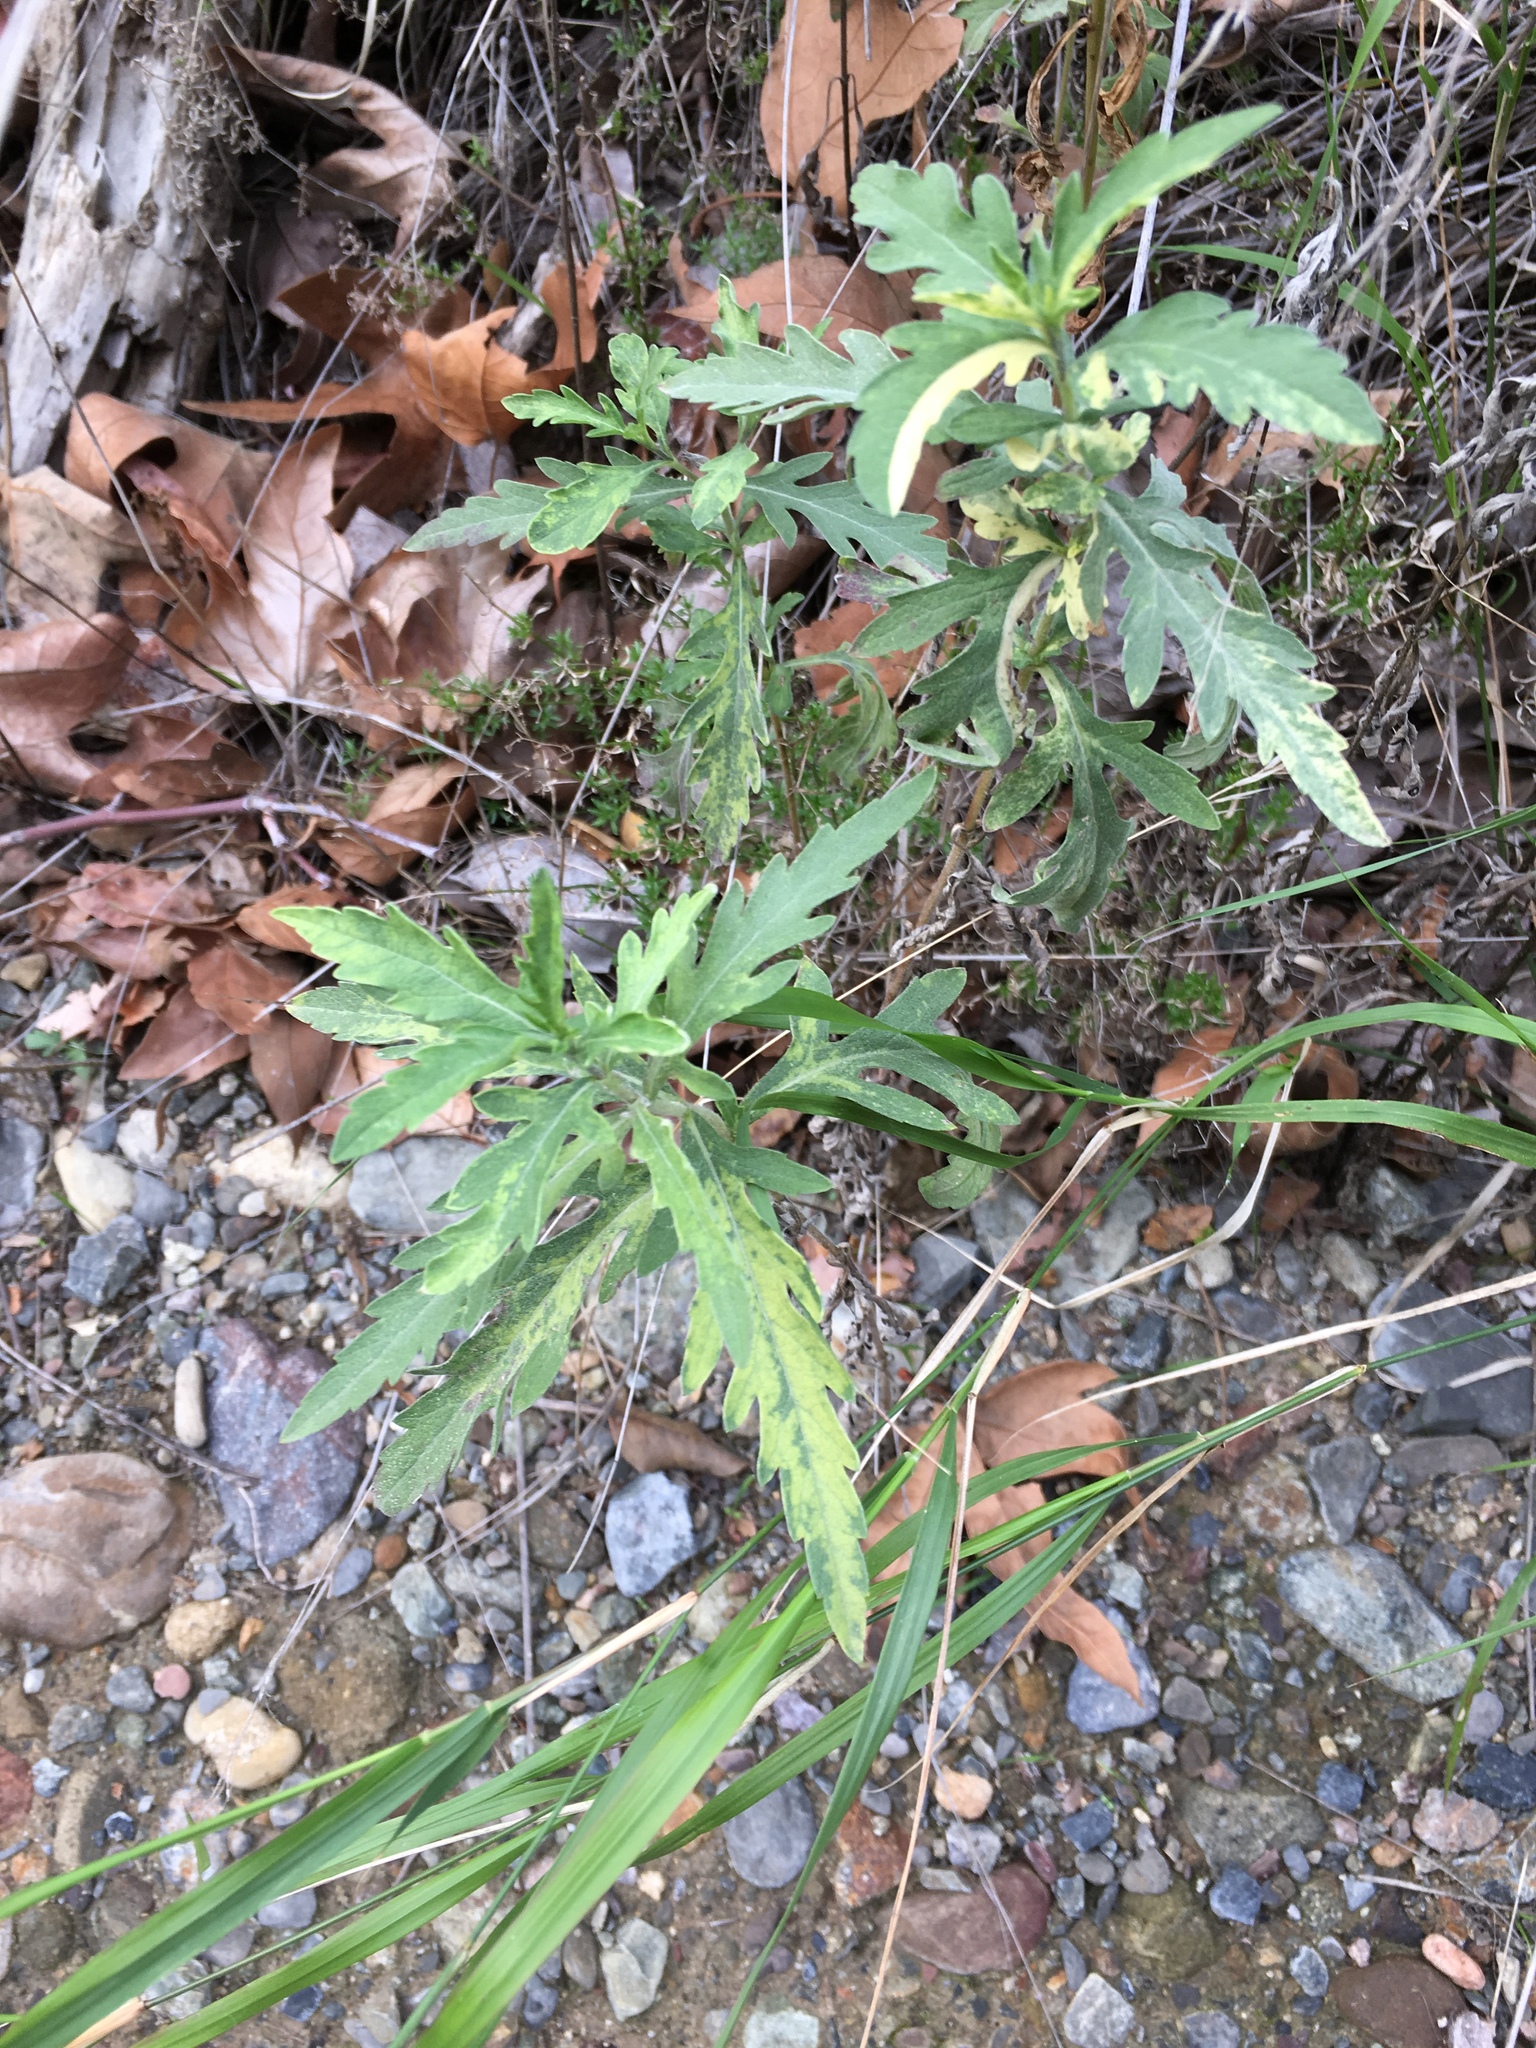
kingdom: Plantae
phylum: Tracheophyta
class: Magnoliopsida
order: Asterales
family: Asteraceae
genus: Ambrosia
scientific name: Ambrosia psilostachya
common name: Perennial ragweed
